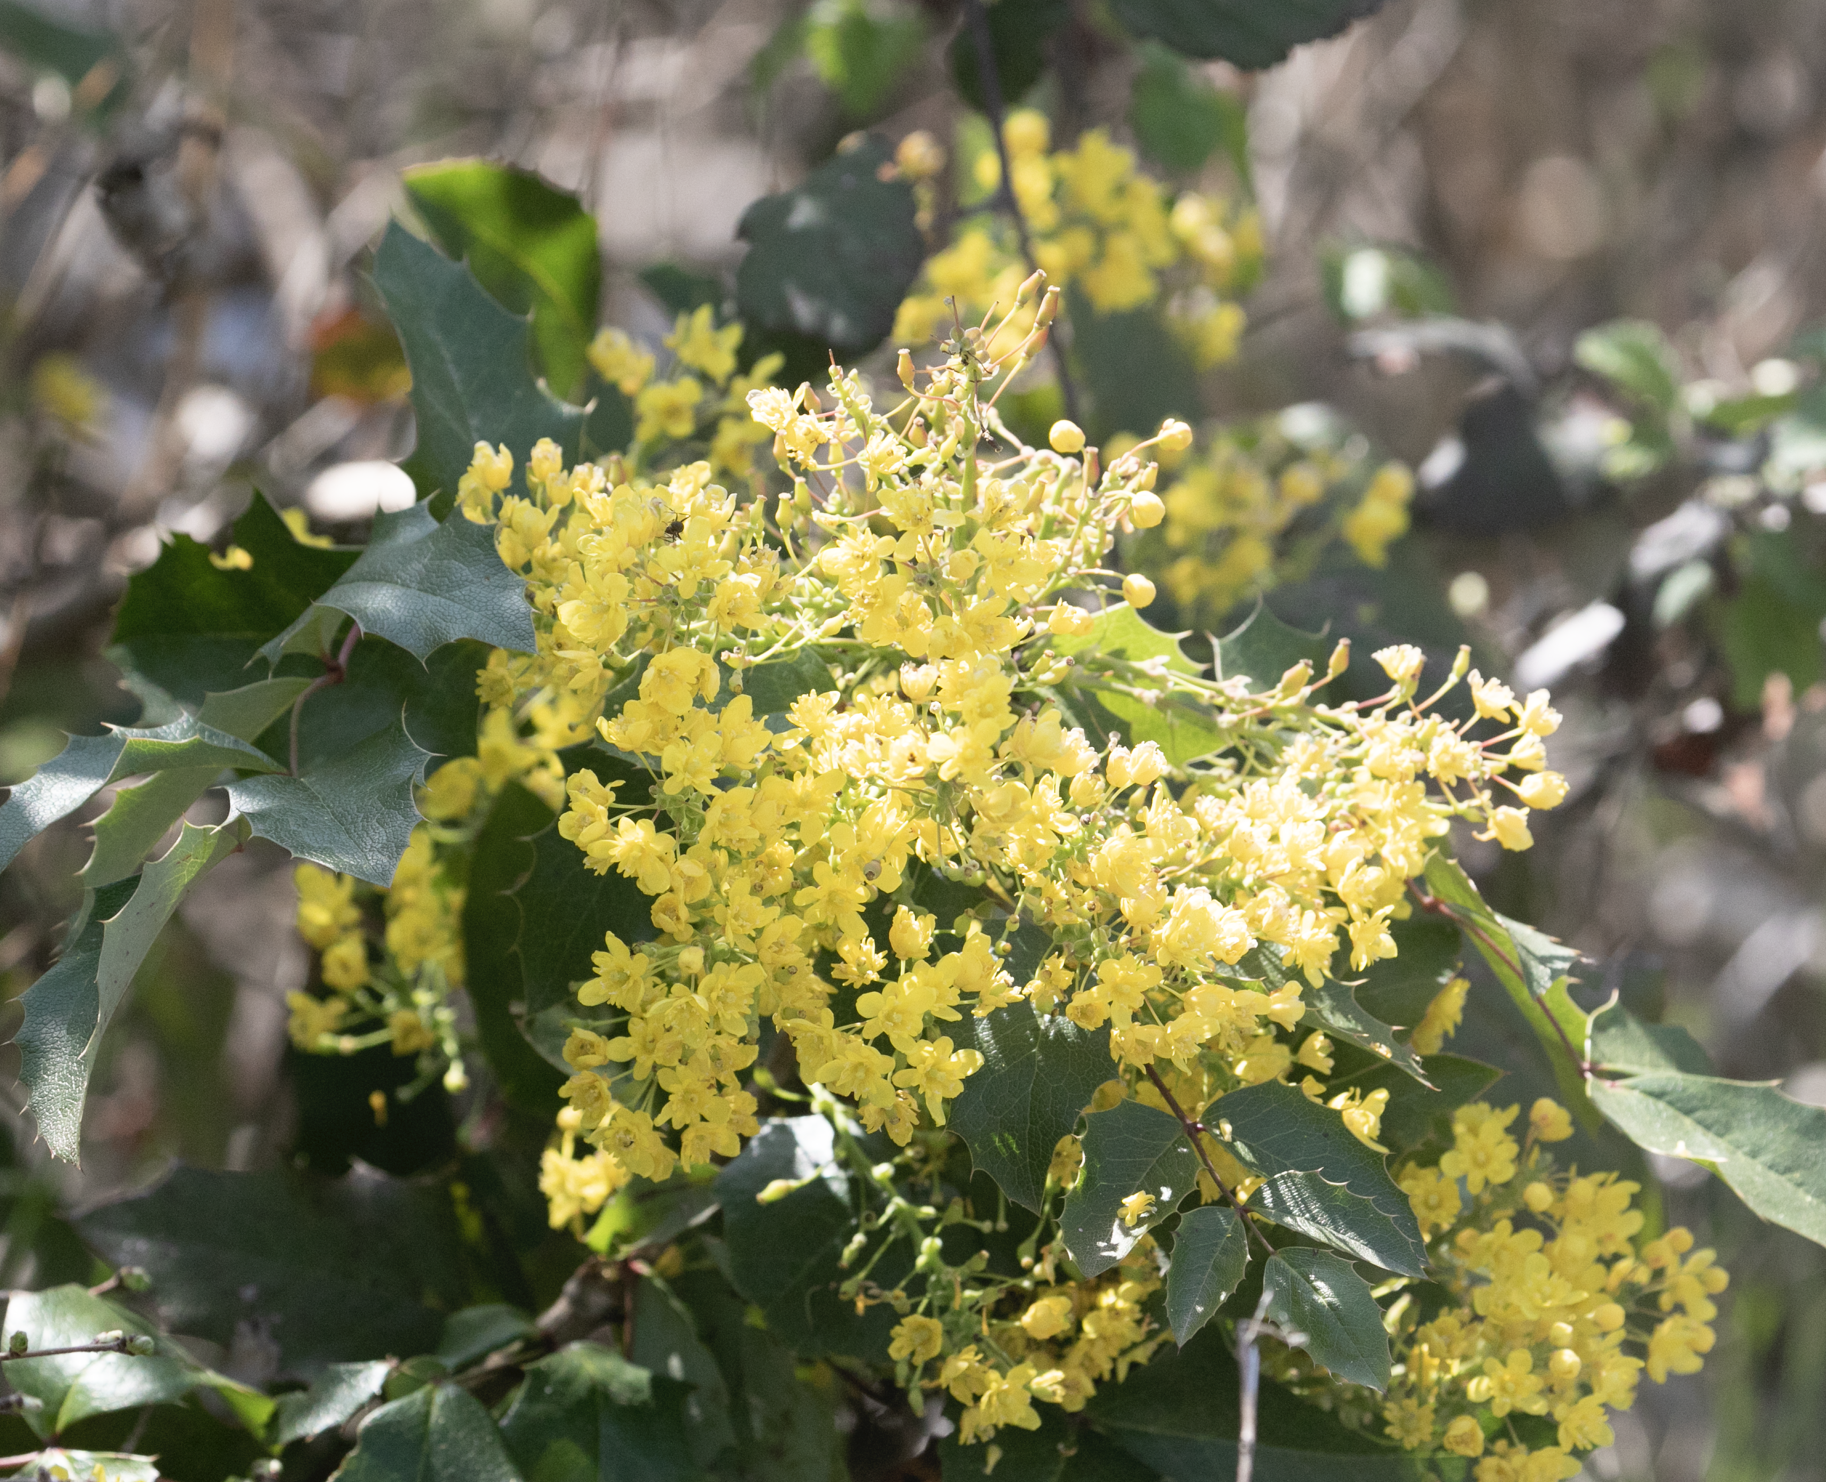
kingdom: Plantae
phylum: Tracheophyta
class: Magnoliopsida
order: Ranunculales
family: Berberidaceae
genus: Mahonia
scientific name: Mahonia aquifolium
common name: Oregon-grape
